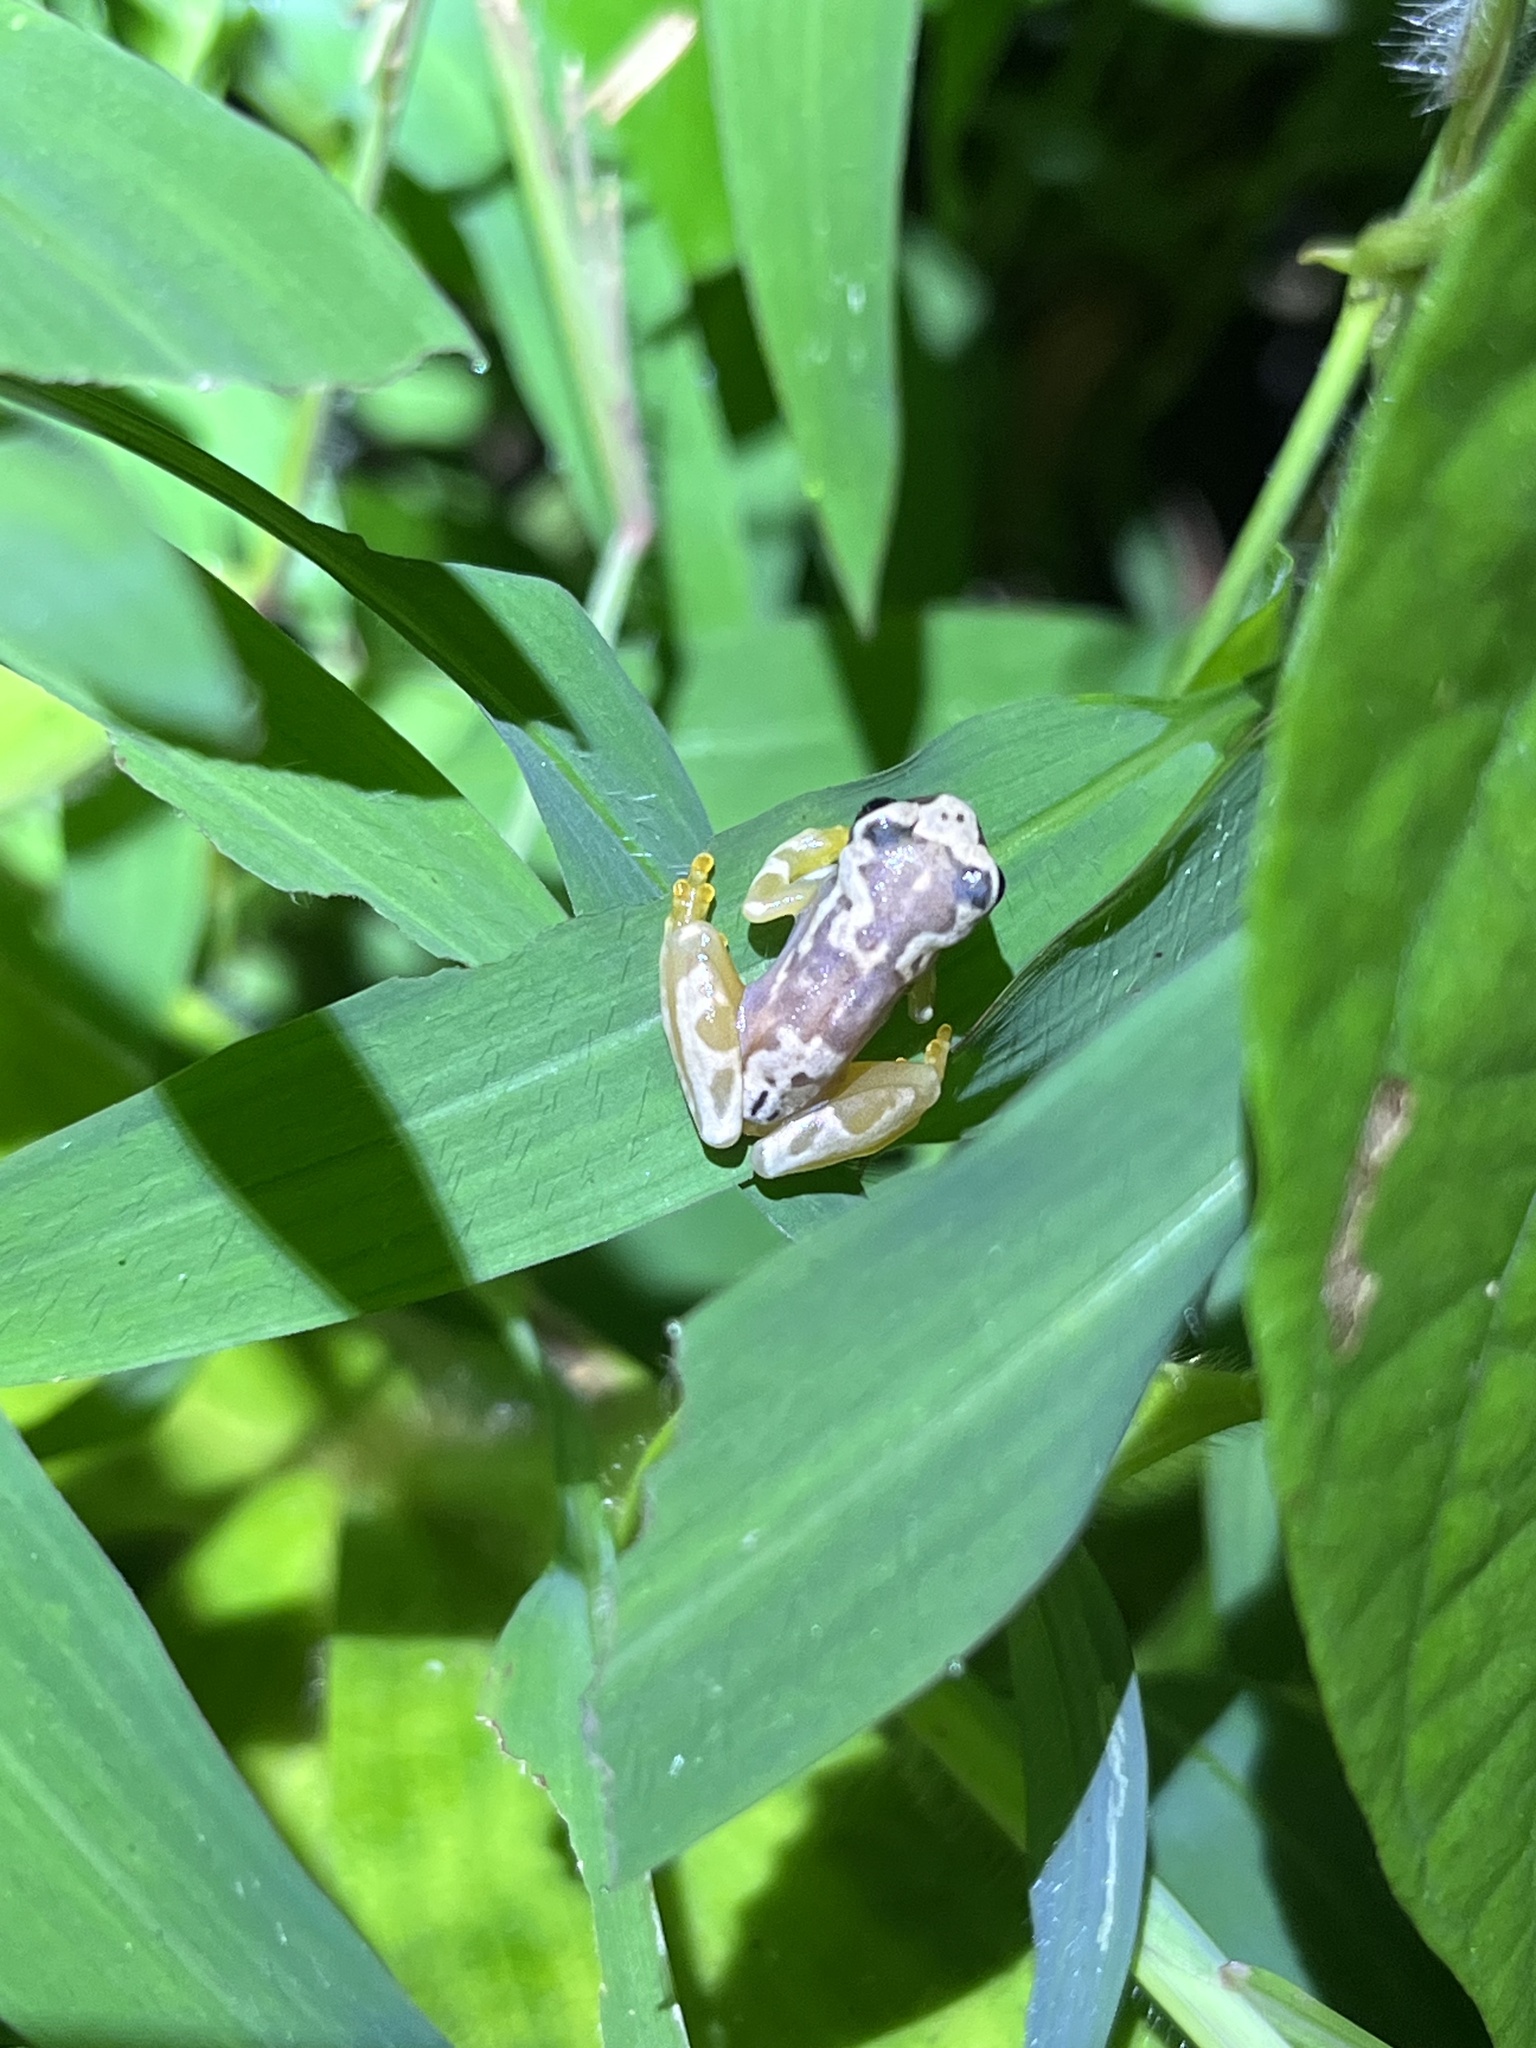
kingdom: Animalia
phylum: Chordata
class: Amphibia
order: Anura
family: Hylidae
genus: Dendropsophus
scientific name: Dendropsophus ebraccatus
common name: Hourglass treefrog
